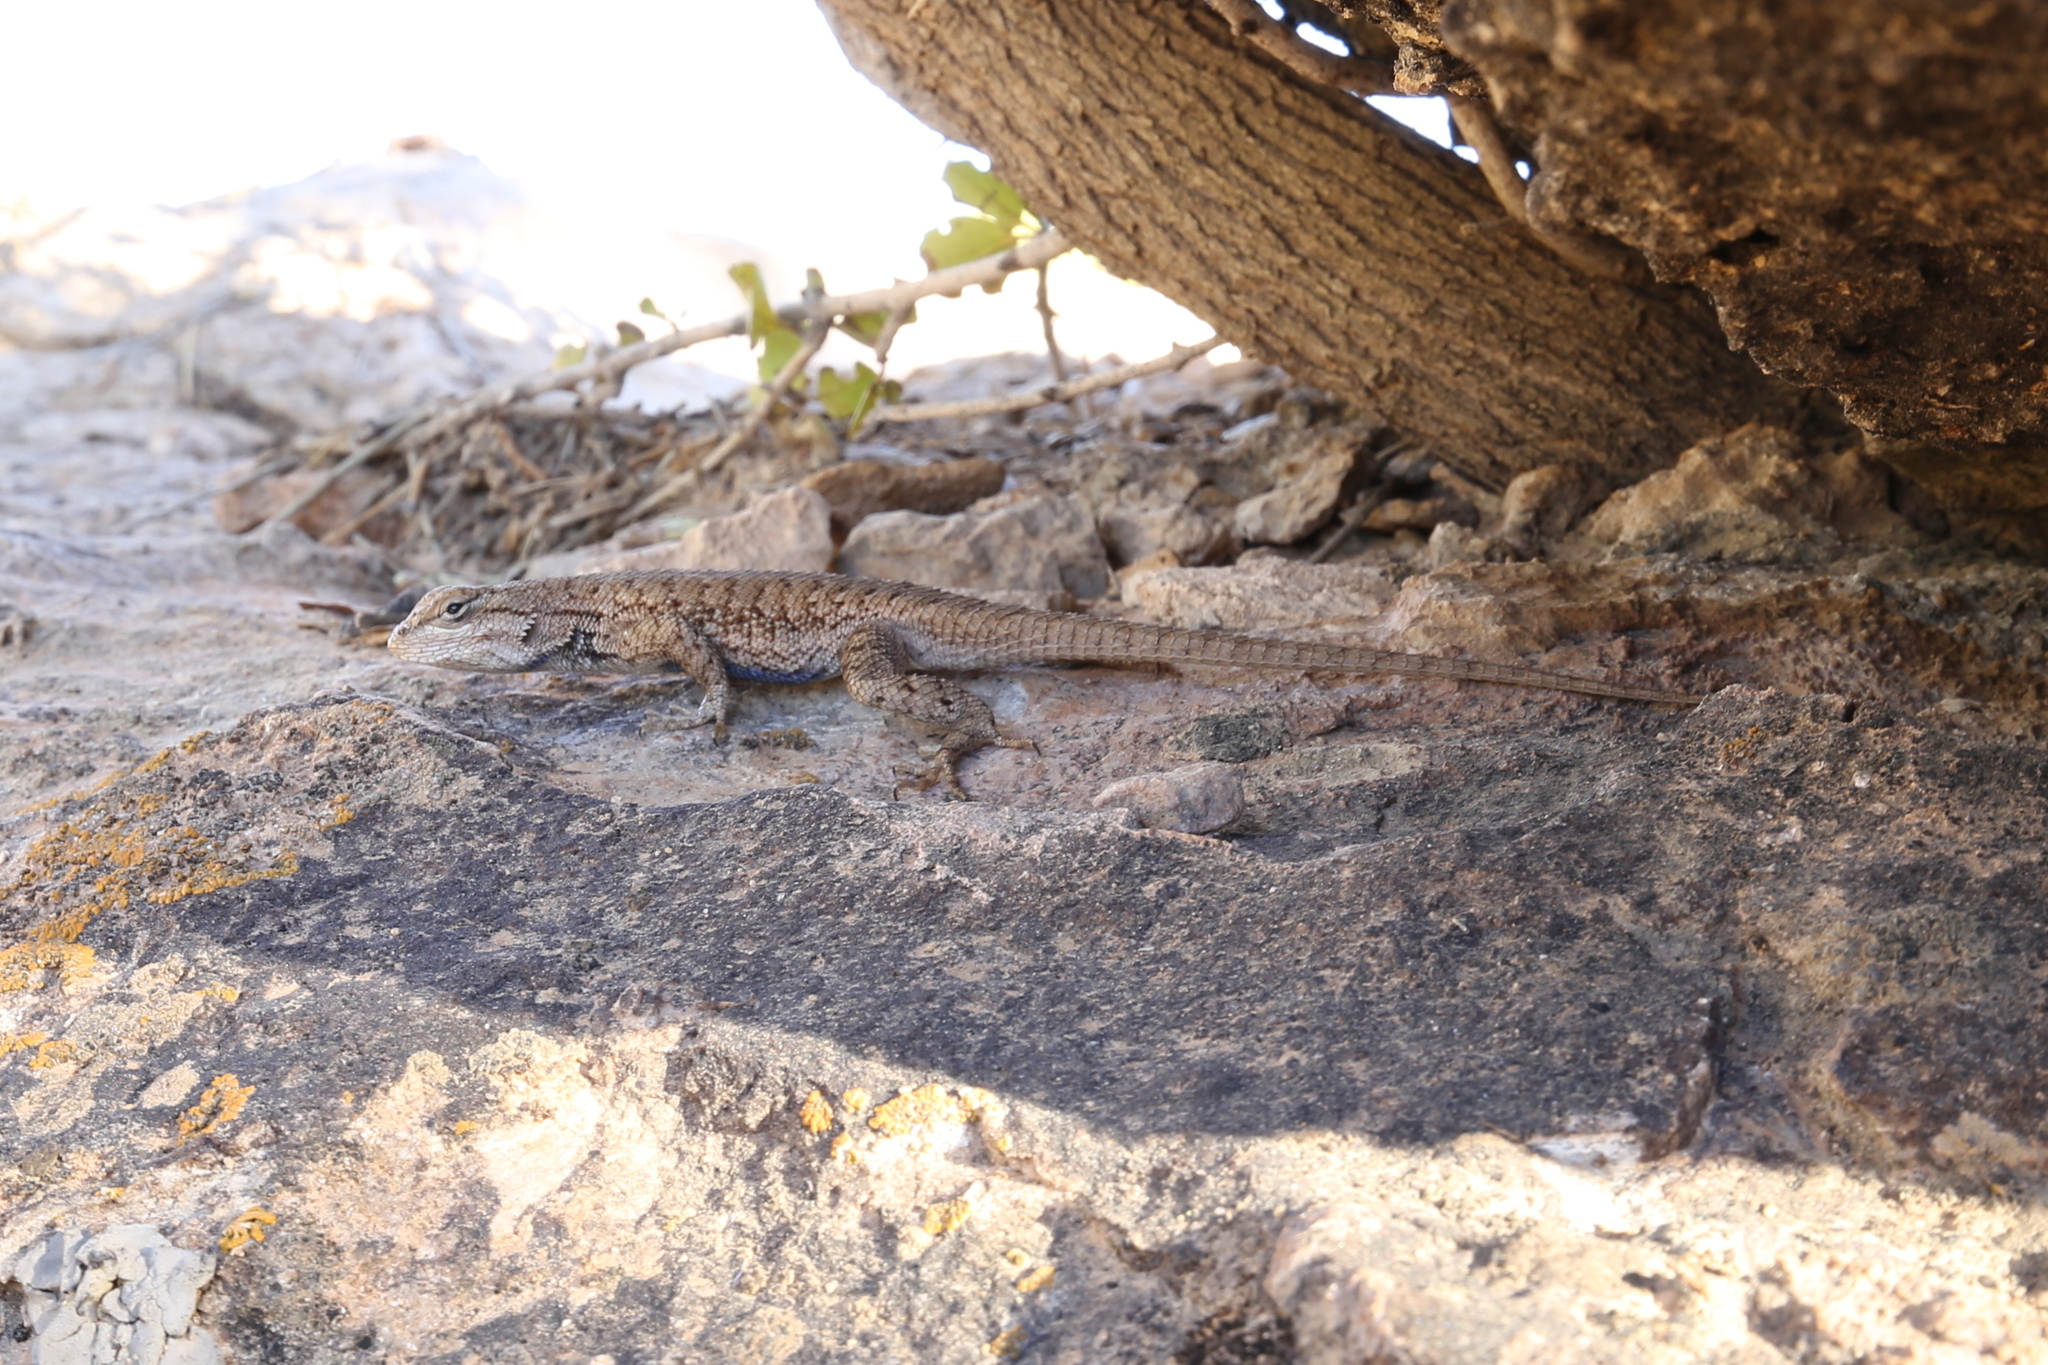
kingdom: Animalia
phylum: Chordata
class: Squamata
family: Phrynosomatidae
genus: Sceloporus
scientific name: Sceloporus tristichus
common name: Plateau fence lizard
